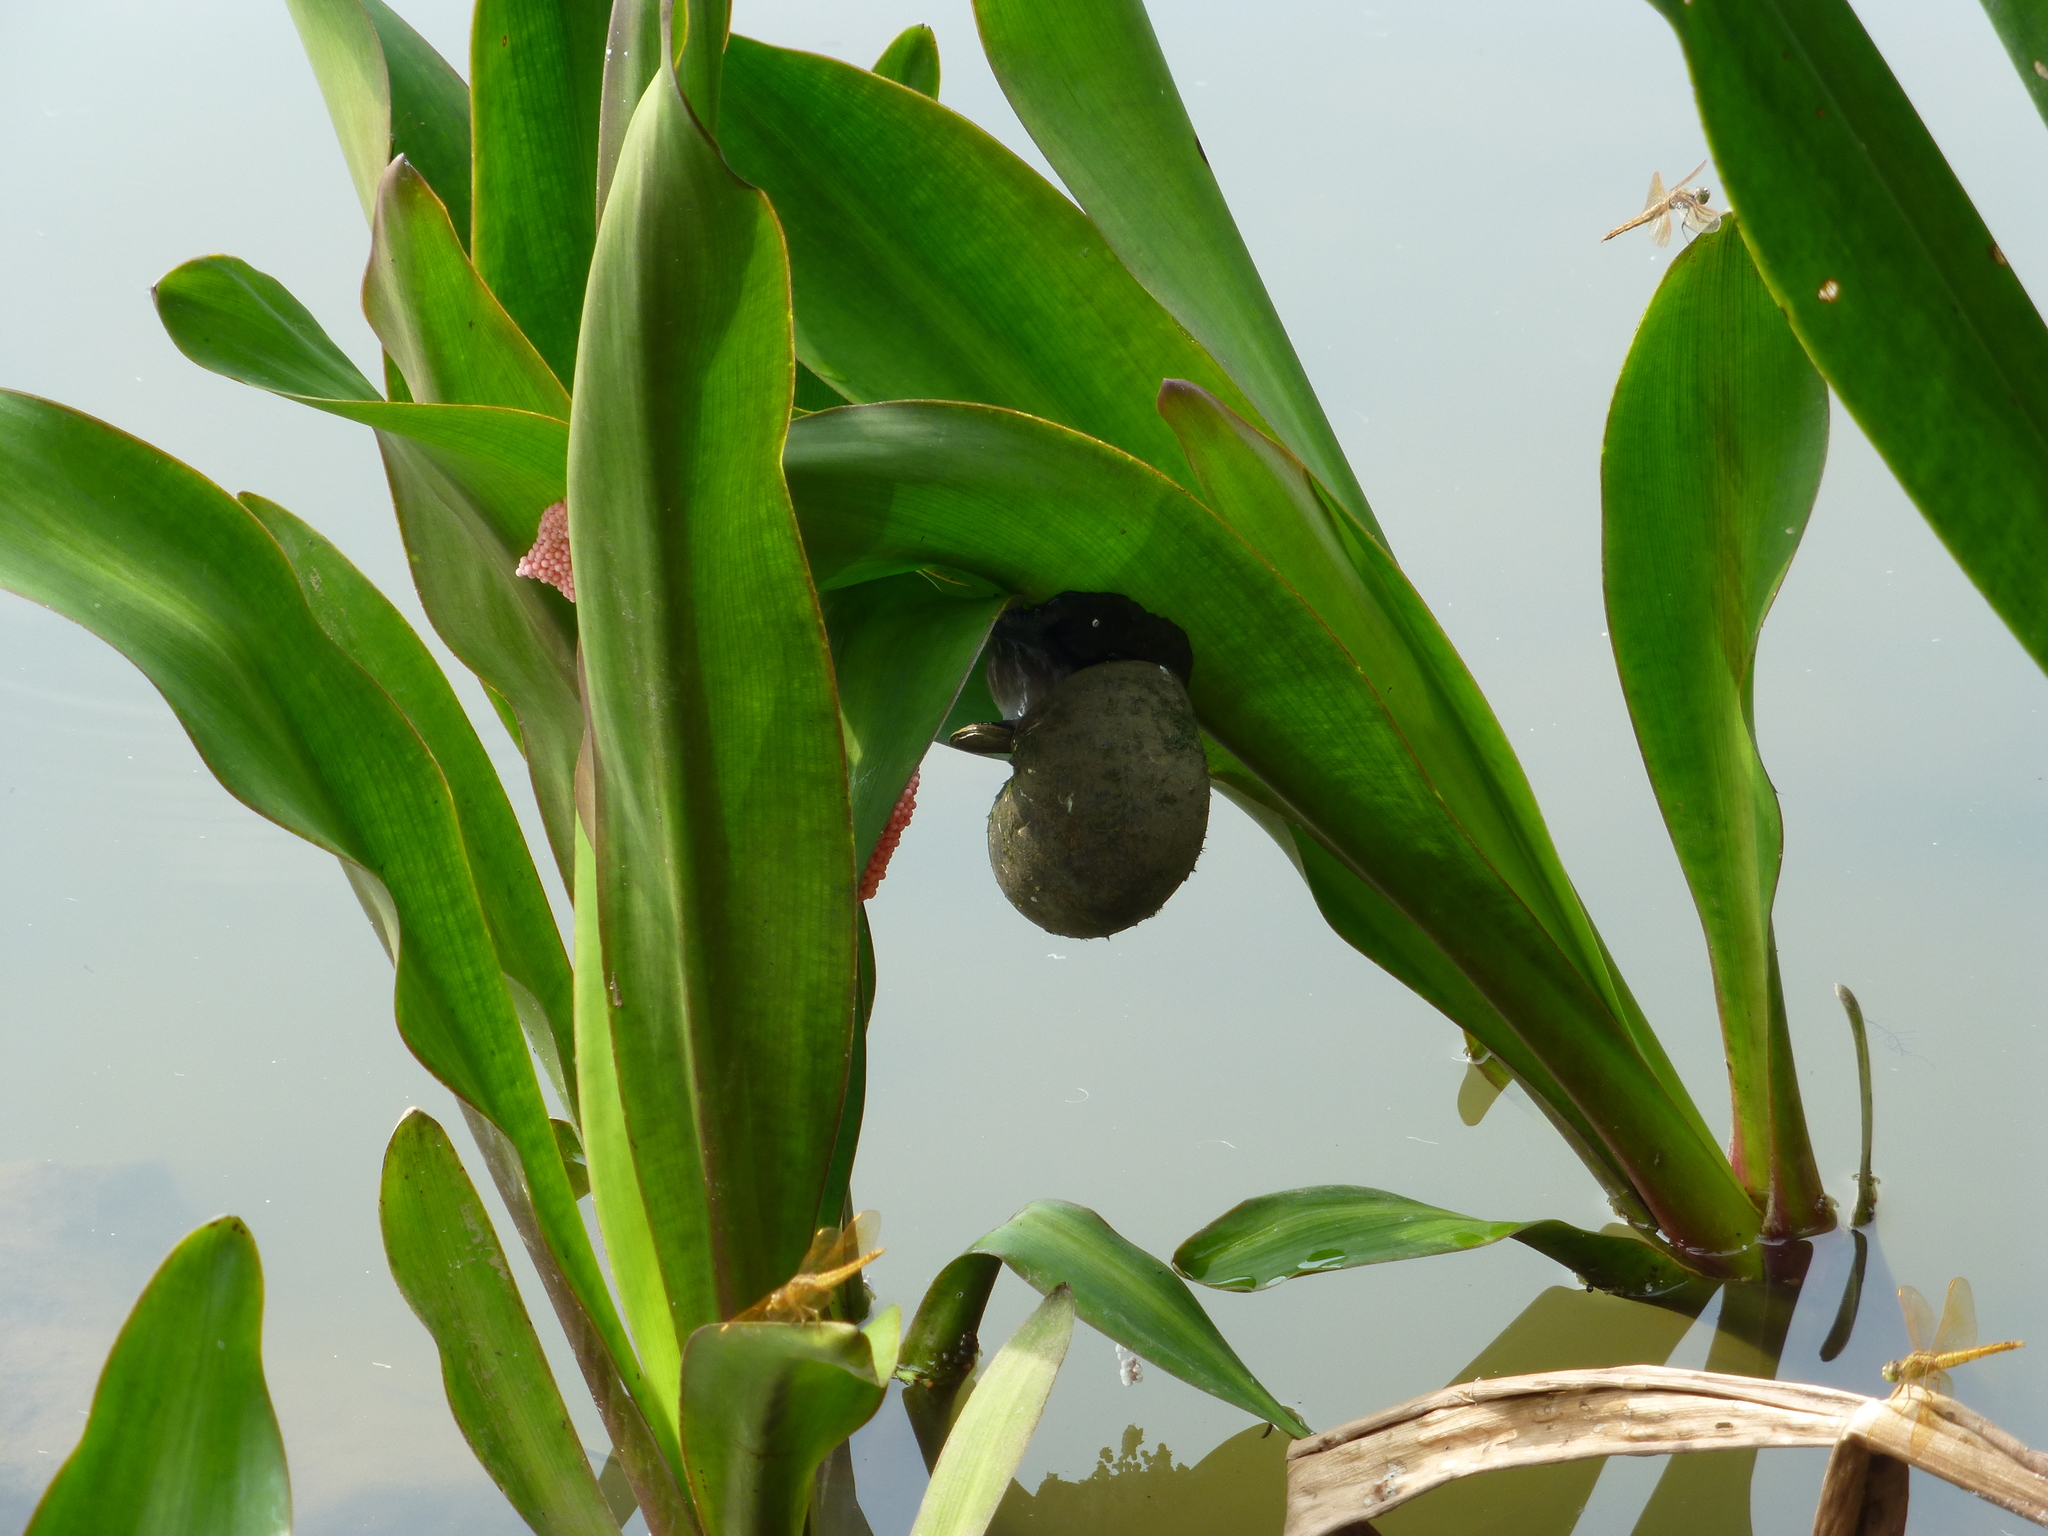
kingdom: Animalia
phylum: Mollusca
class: Gastropoda
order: Architaenioglossa
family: Ampullariidae
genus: Pomacea
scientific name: Pomacea canaliculata
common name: Channeled applesnail
